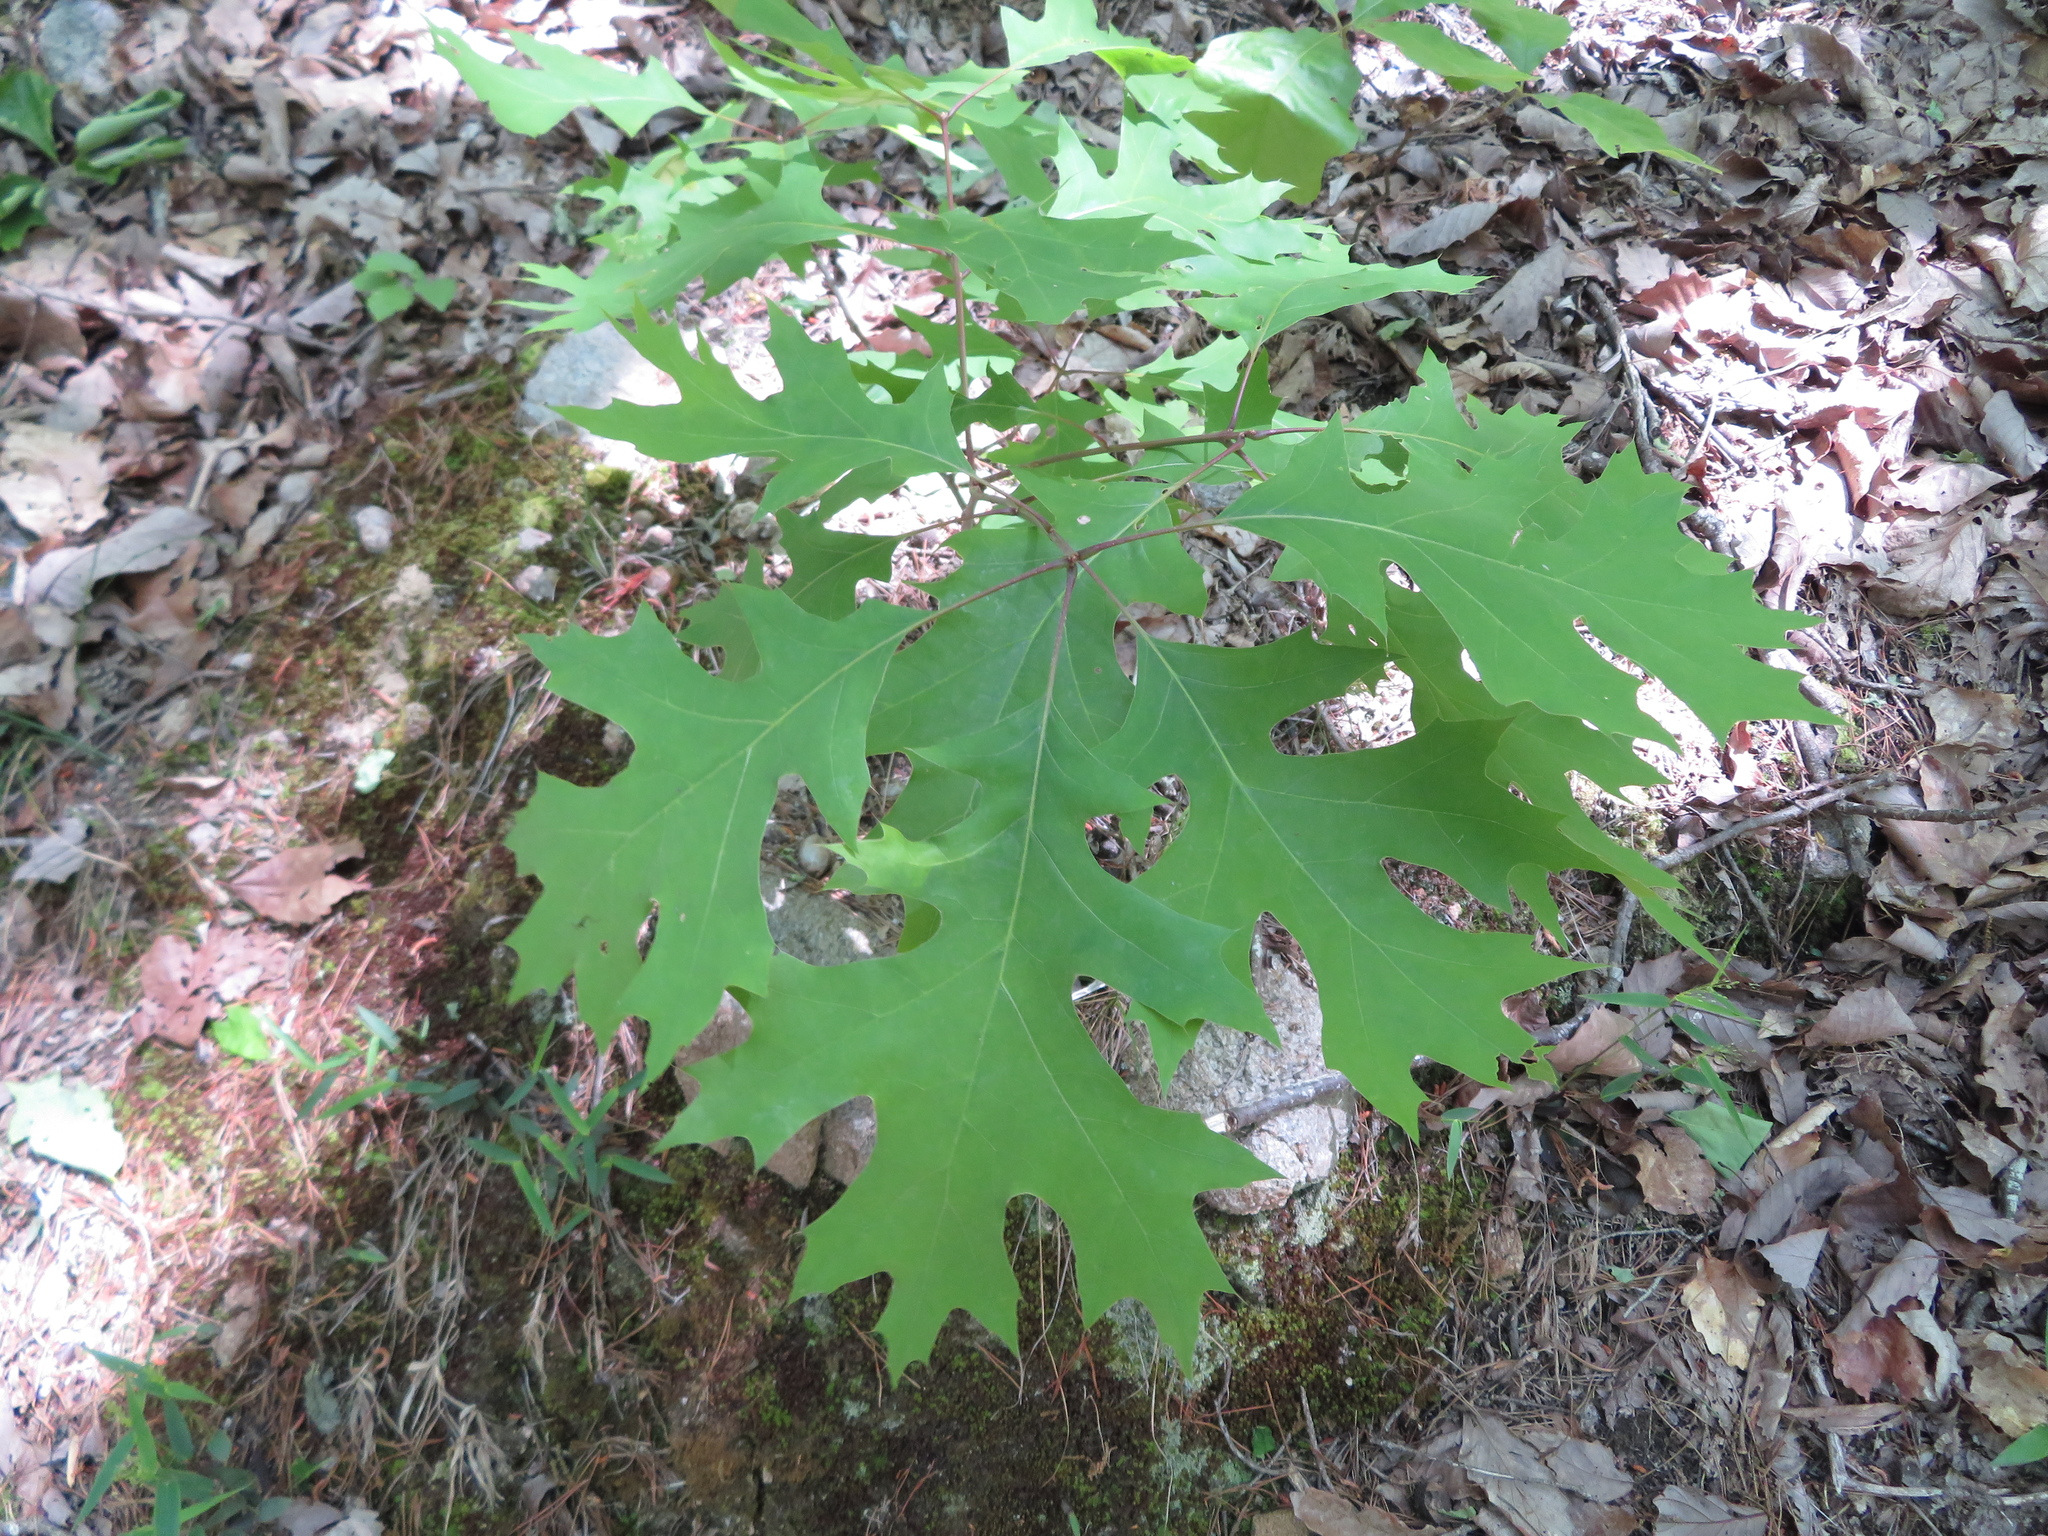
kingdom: Plantae
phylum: Tracheophyta
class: Magnoliopsida
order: Fagales
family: Fagaceae
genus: Quercus
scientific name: Quercus rubra
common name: Red oak
